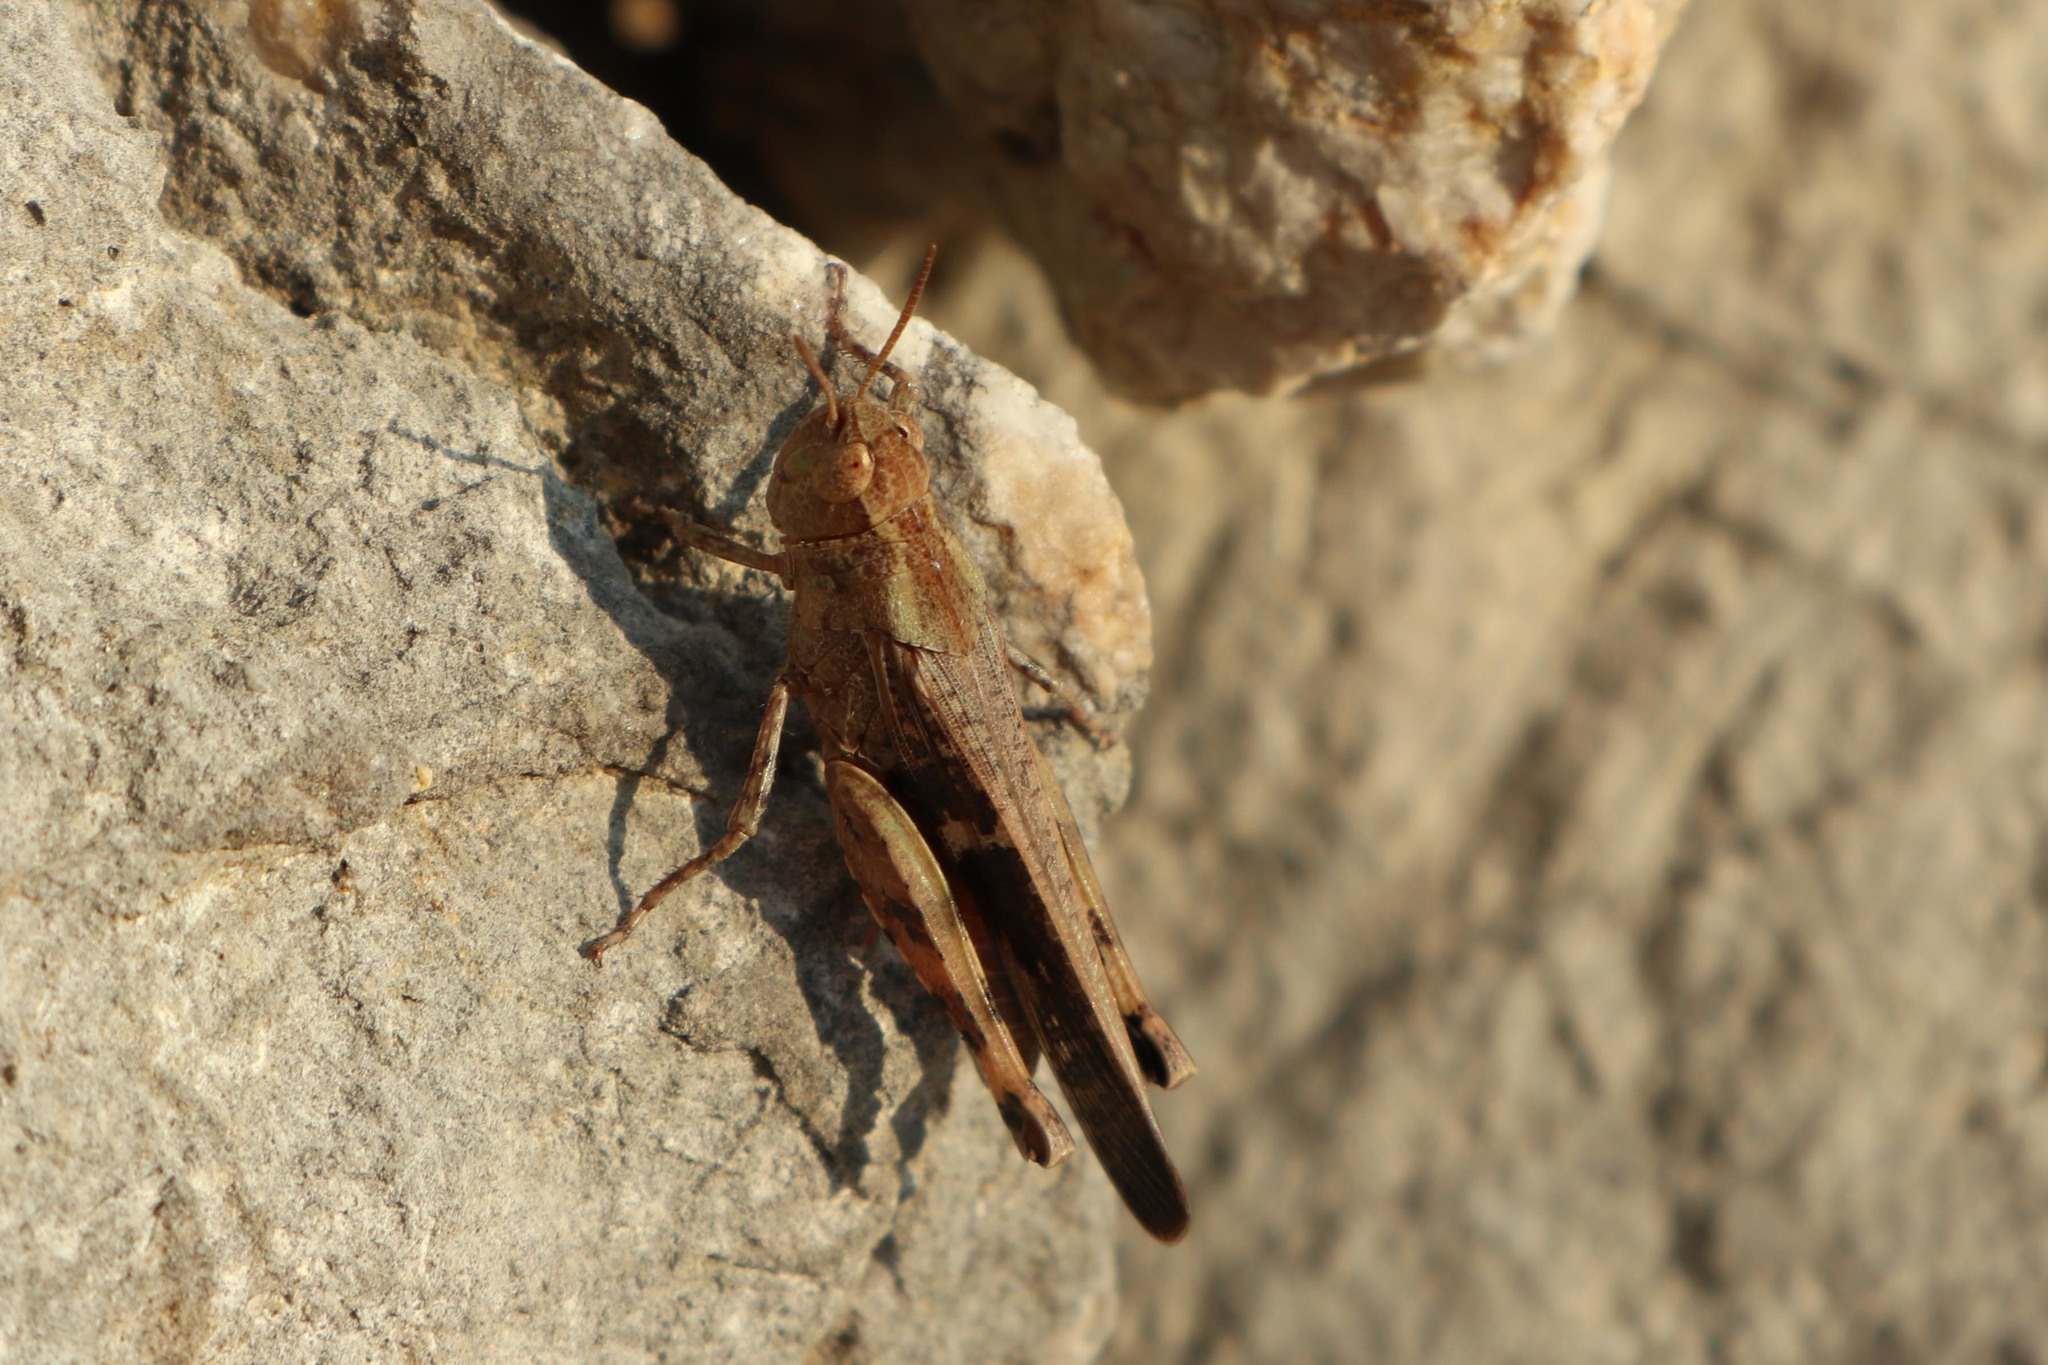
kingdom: Animalia
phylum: Arthropoda
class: Insecta
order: Orthoptera
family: Acrididae
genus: Aiolopus
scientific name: Aiolopus strepens
